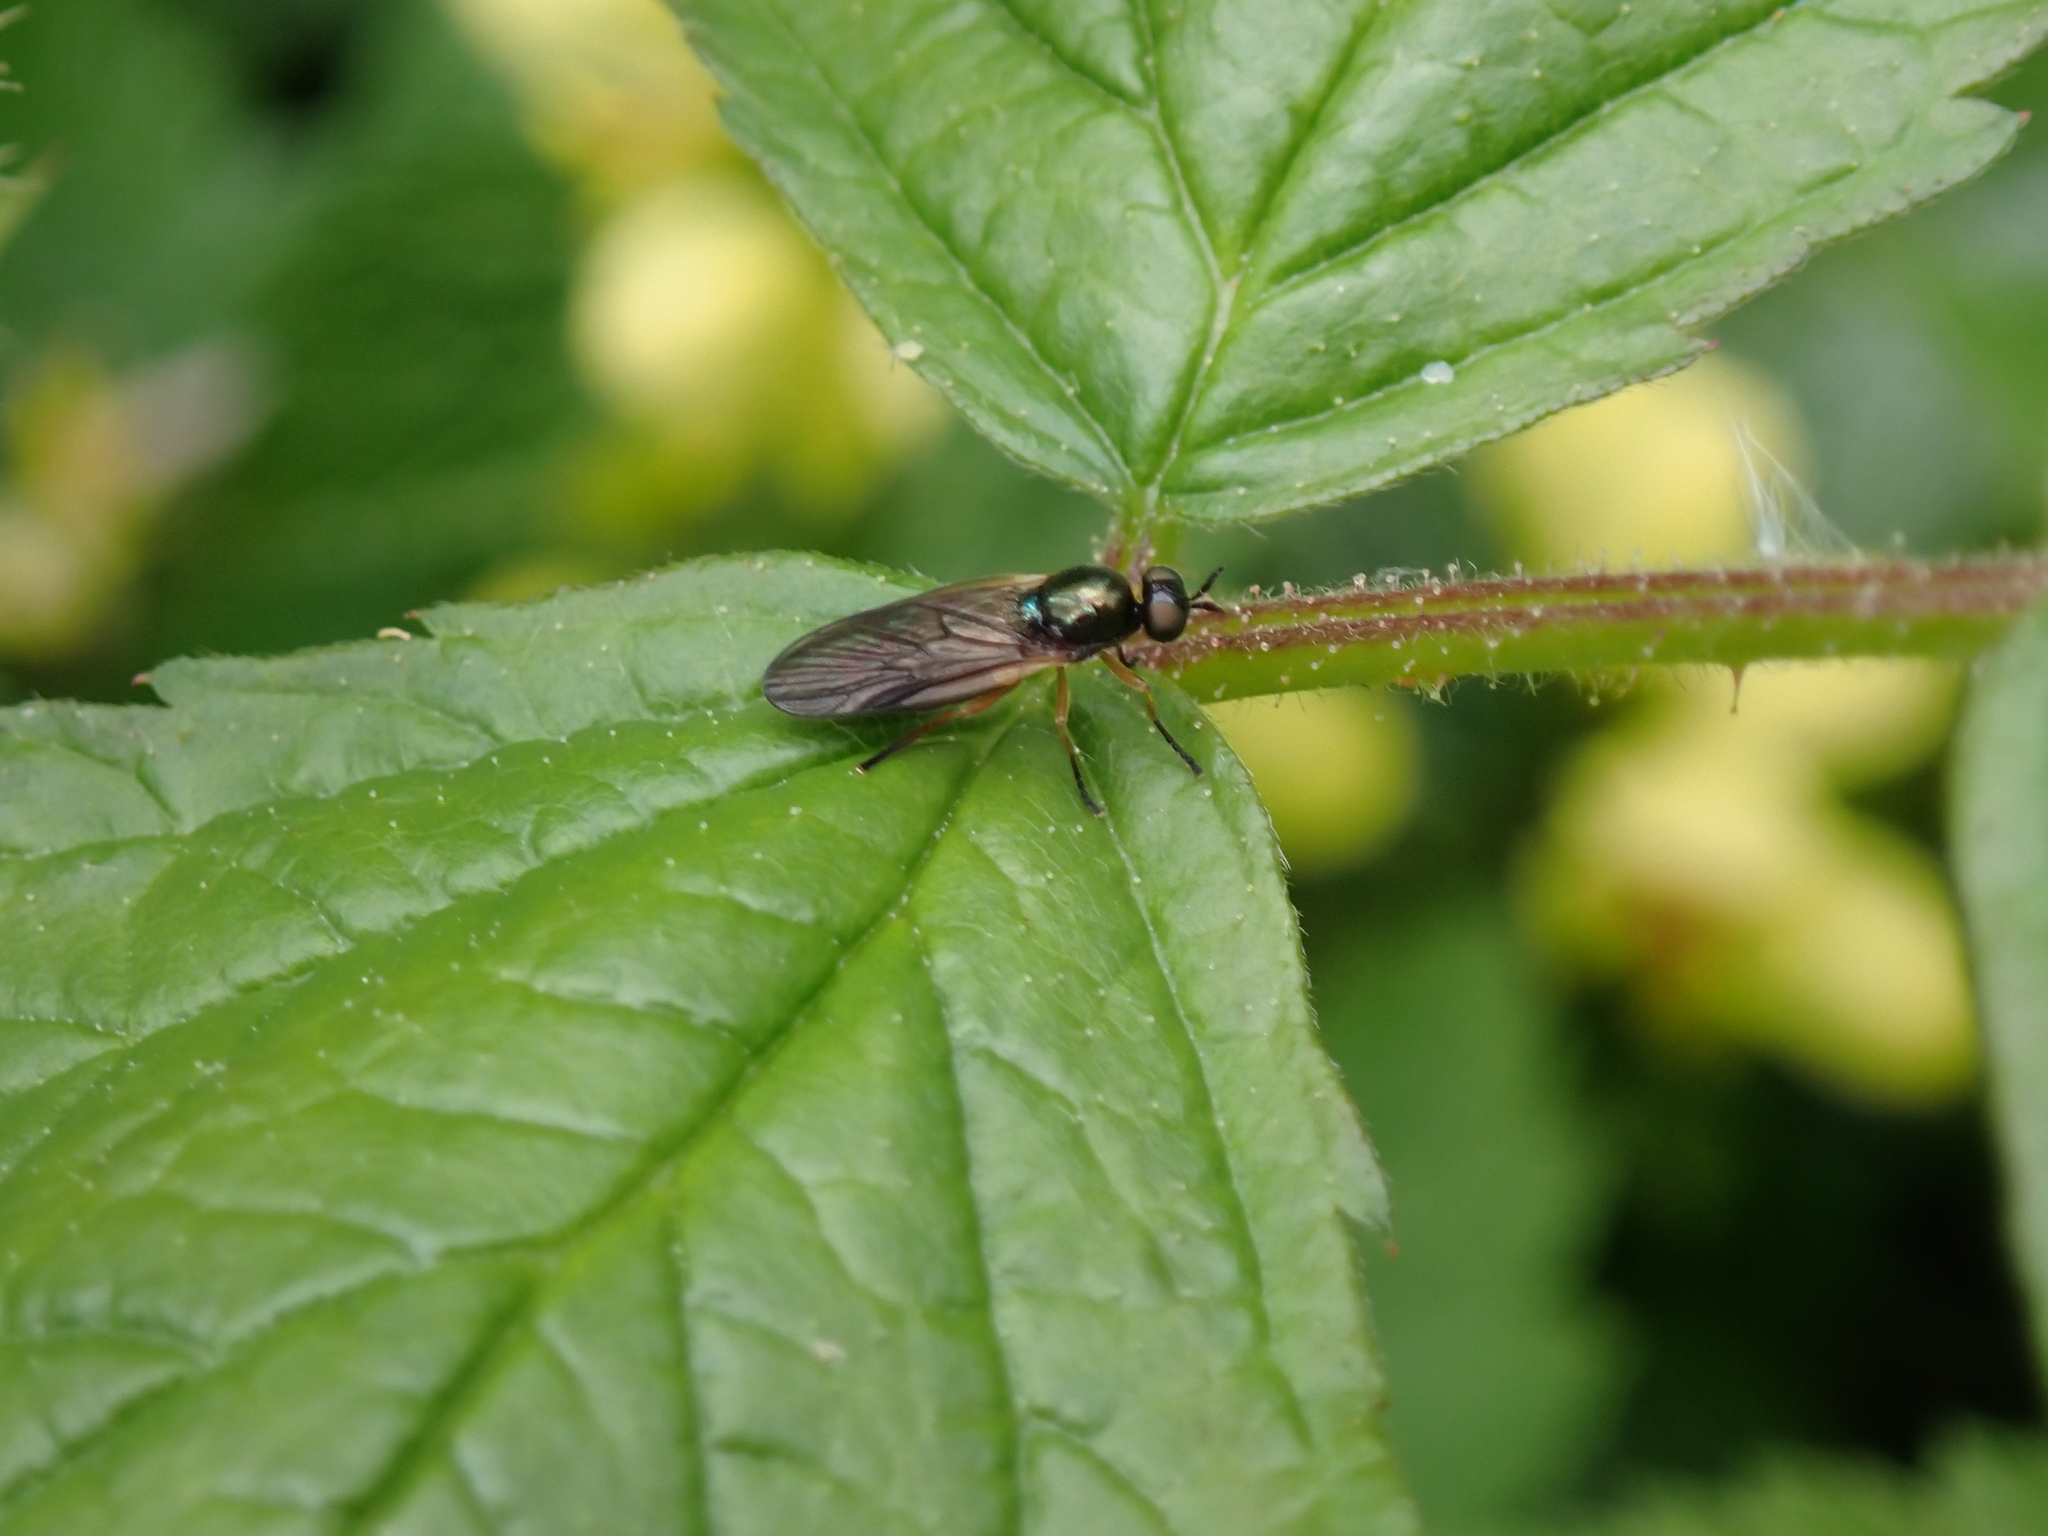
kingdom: Animalia
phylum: Arthropoda
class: Insecta
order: Diptera
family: Stratiomyidae
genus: Beris
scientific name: Beris chalybata
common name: Murky-legged black legionnaire
